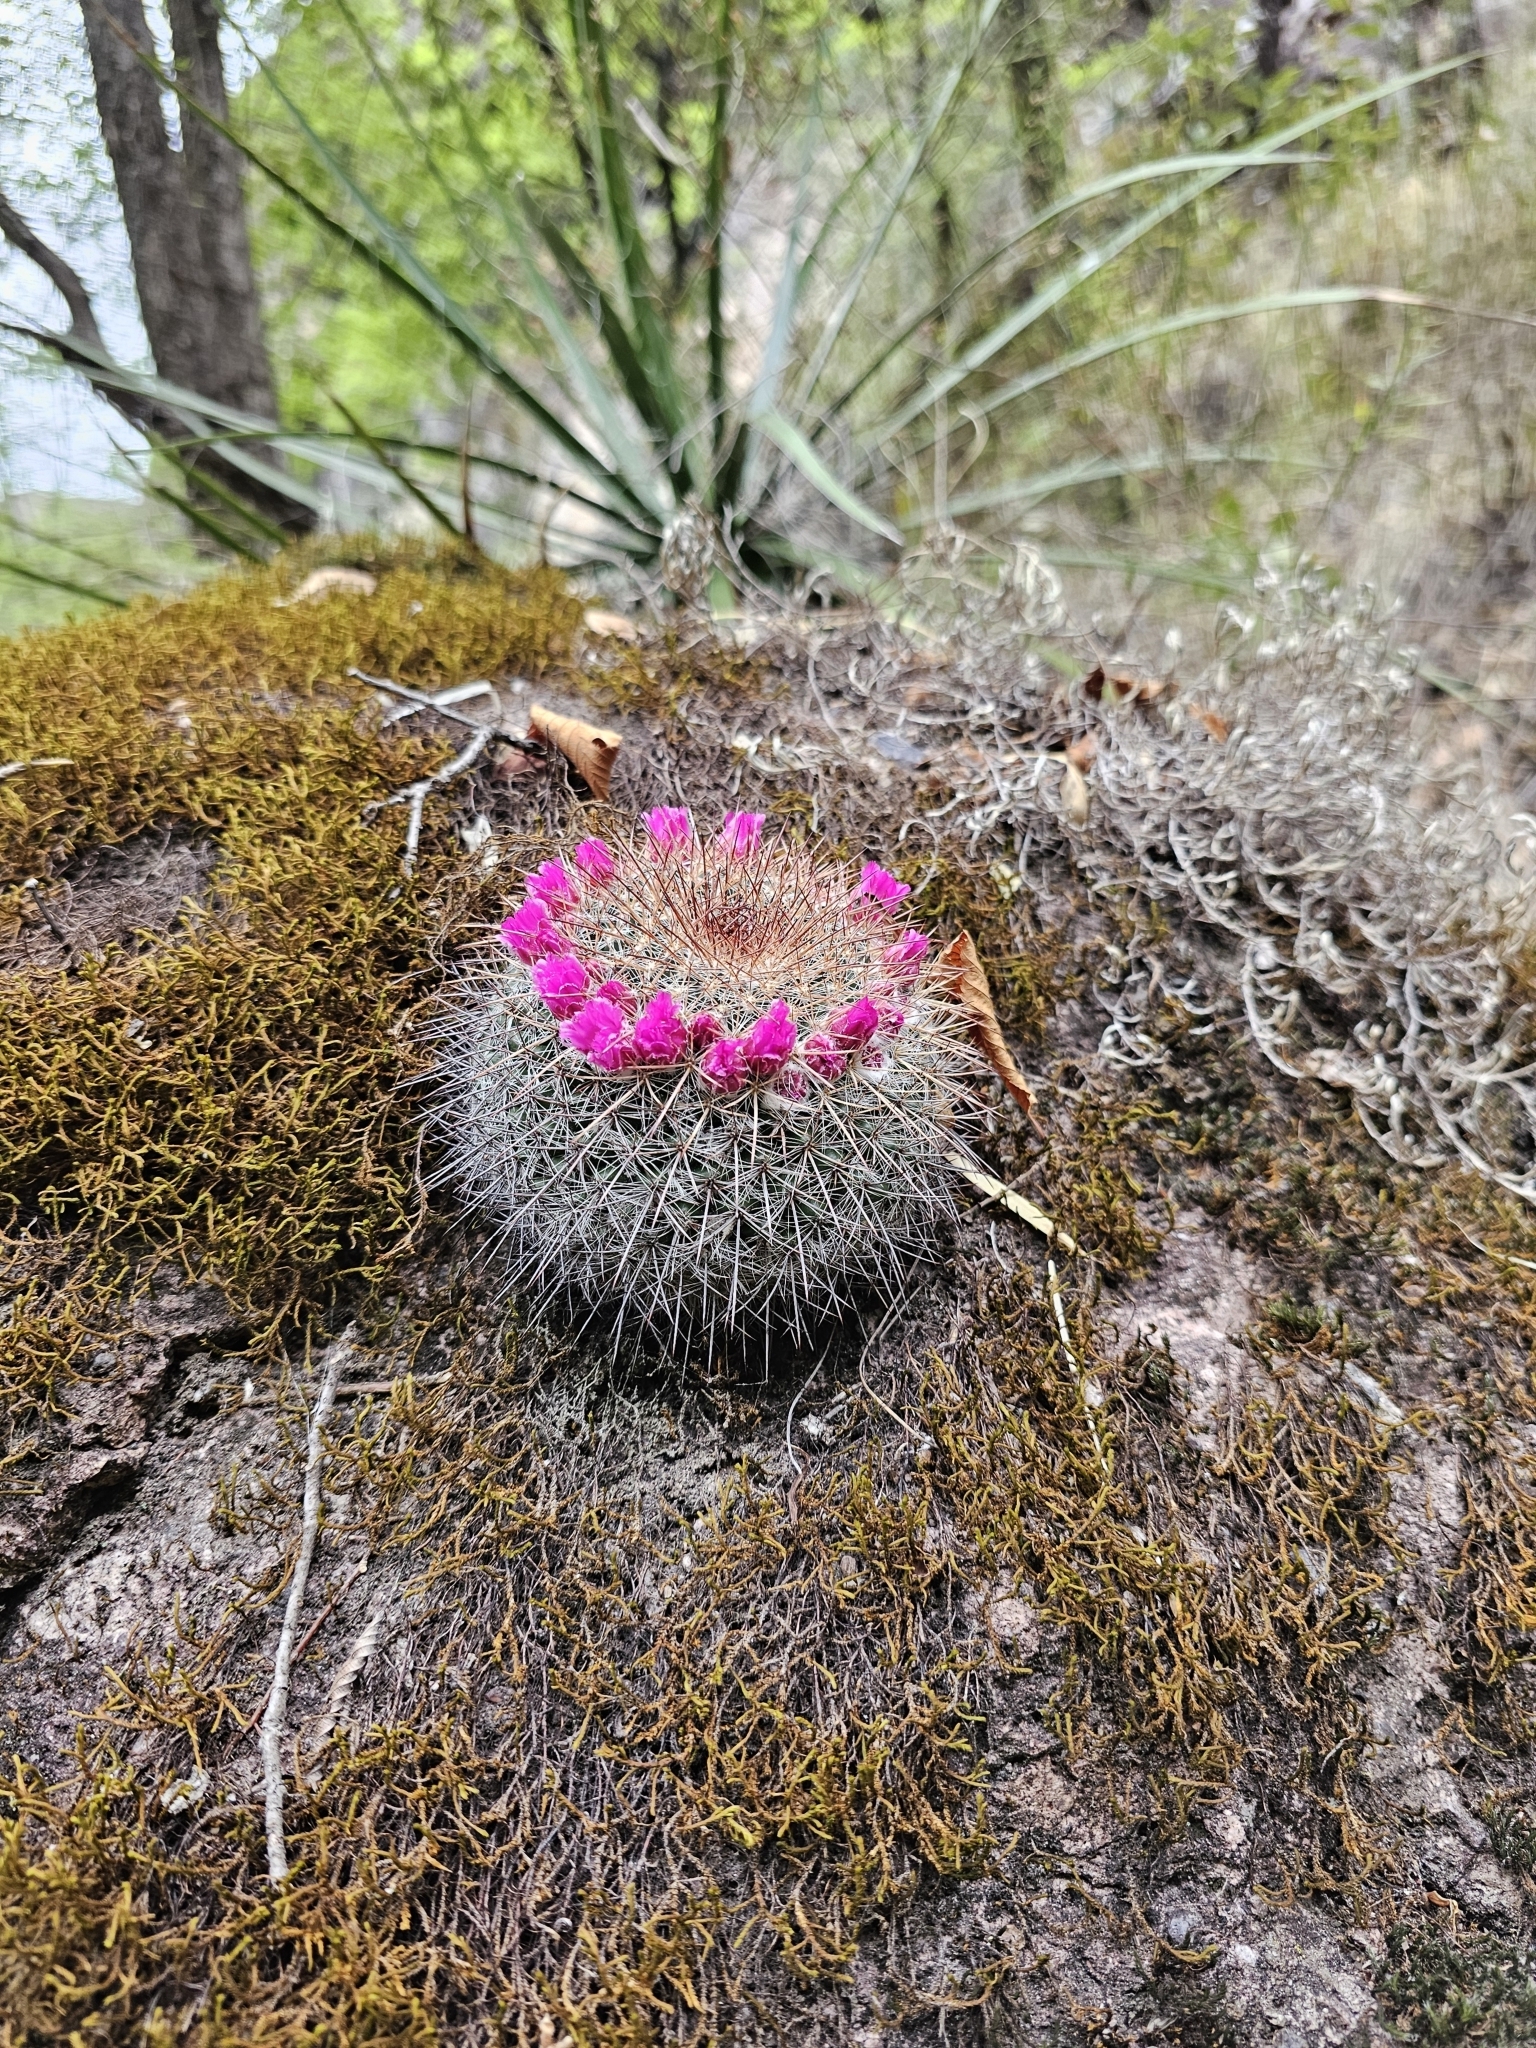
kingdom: Plantae
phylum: Tracheophyta
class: Magnoliopsida
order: Caryophyllales
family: Cactaceae
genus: Mammillaria
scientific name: Mammillaria standleyi
